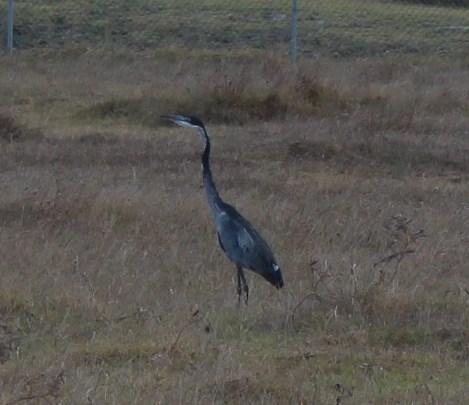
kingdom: Animalia
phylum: Chordata
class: Aves
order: Pelecaniformes
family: Ardeidae
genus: Ardea
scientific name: Ardea melanocephala
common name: Black-headed heron
